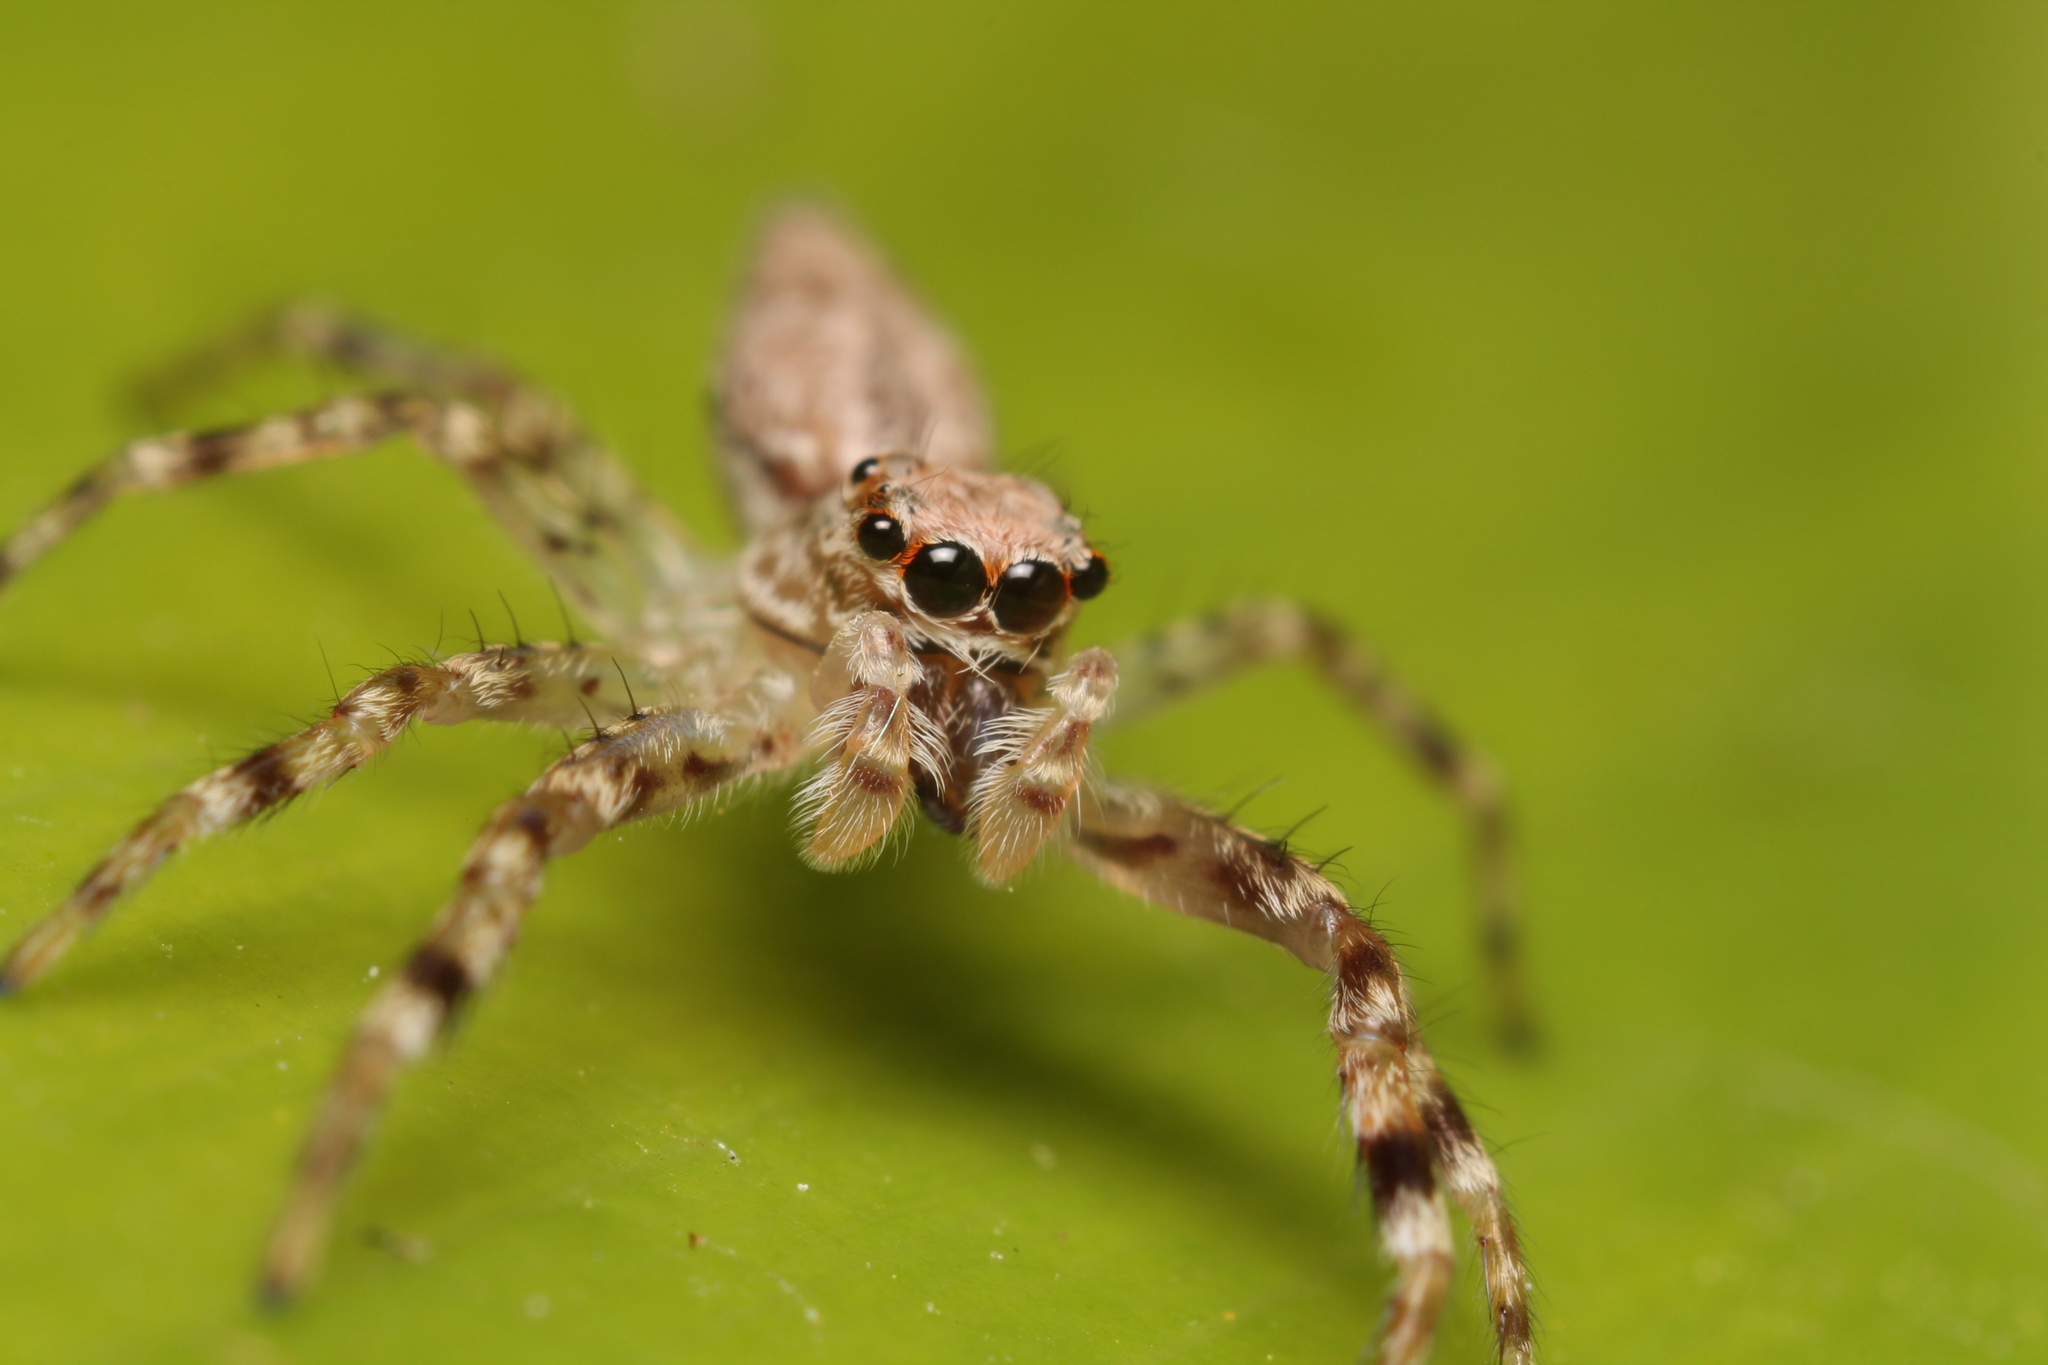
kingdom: Animalia
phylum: Arthropoda
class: Arachnida
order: Araneae
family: Salticidae
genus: Helpis
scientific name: Helpis minitabunda
